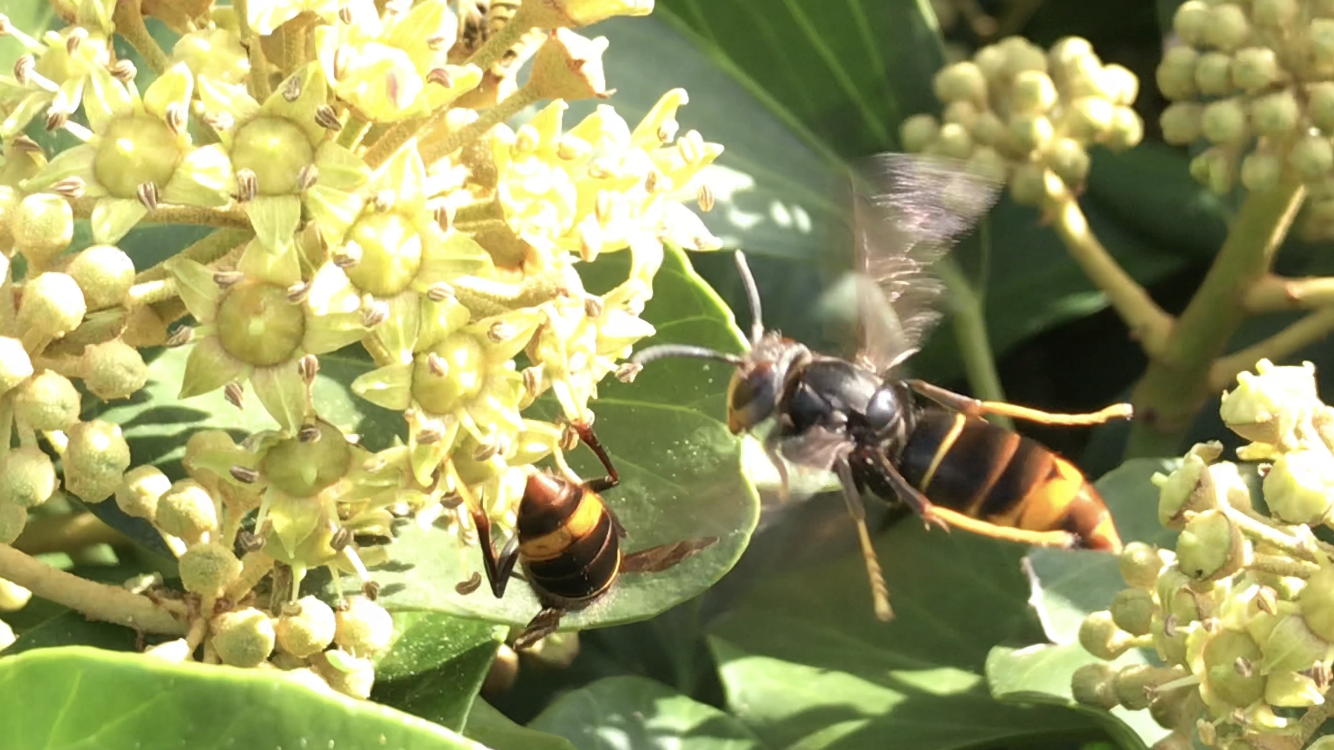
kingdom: Animalia
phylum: Arthropoda
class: Insecta
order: Hymenoptera
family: Vespidae
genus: Vespa
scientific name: Vespa velutina
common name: Asian hornet
